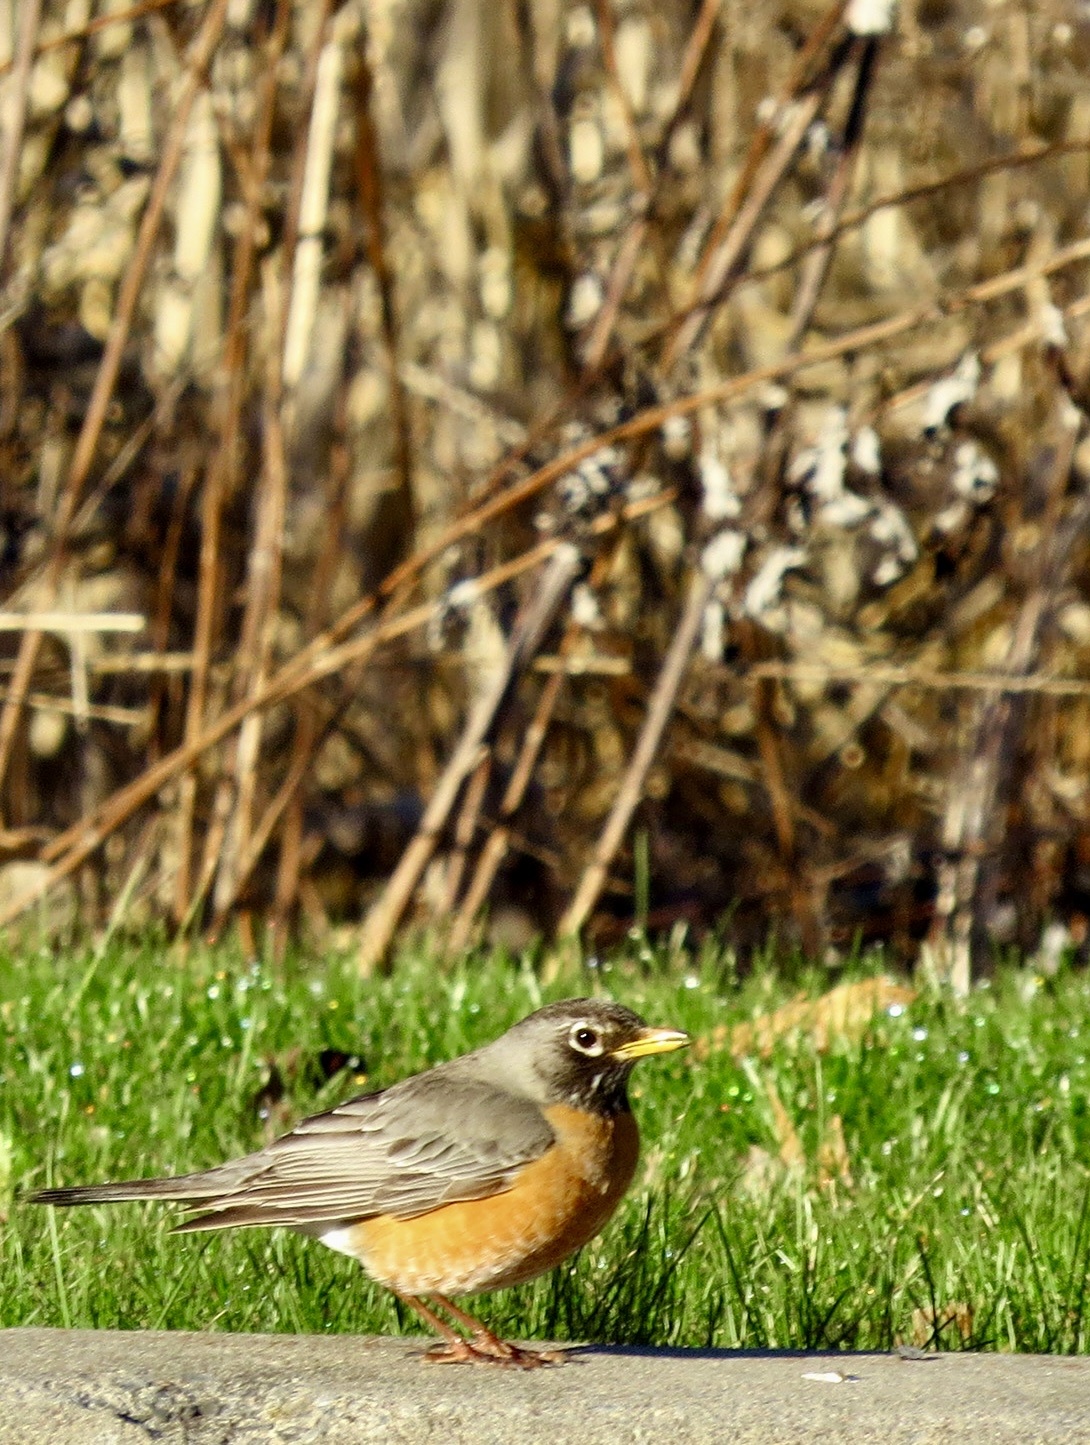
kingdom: Animalia
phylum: Chordata
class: Aves
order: Passeriformes
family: Turdidae
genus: Turdus
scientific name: Turdus migratorius
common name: American robin
